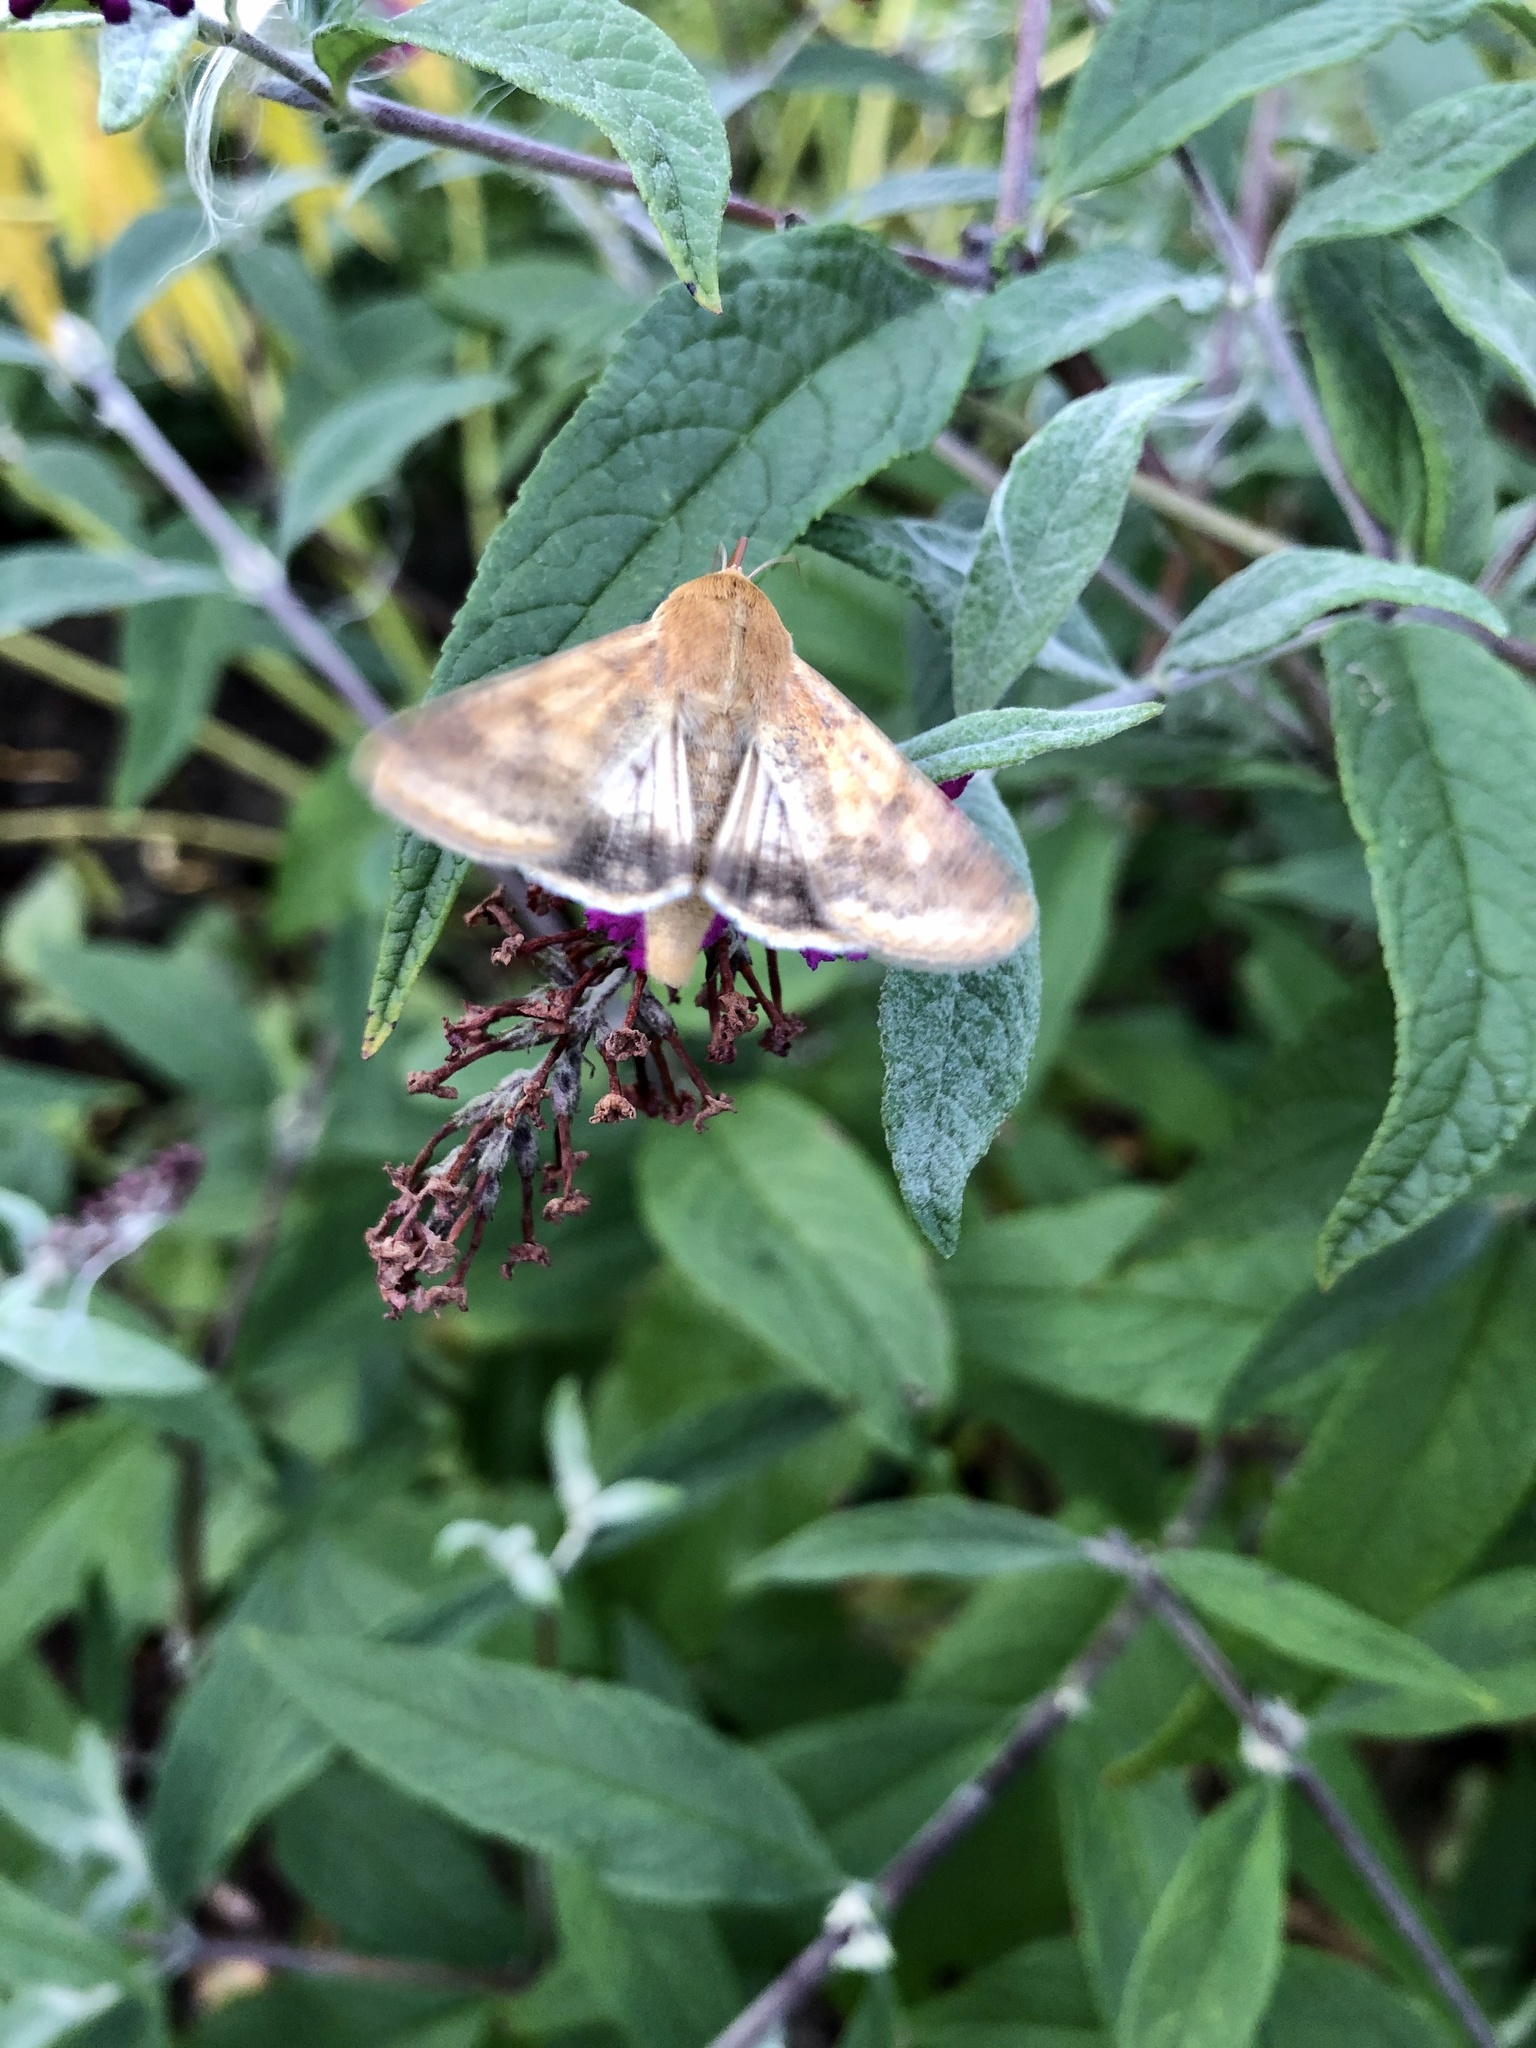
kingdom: Animalia
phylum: Arthropoda
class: Insecta
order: Lepidoptera
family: Noctuidae
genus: Helicoverpa
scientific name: Helicoverpa zea
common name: Bollworm
